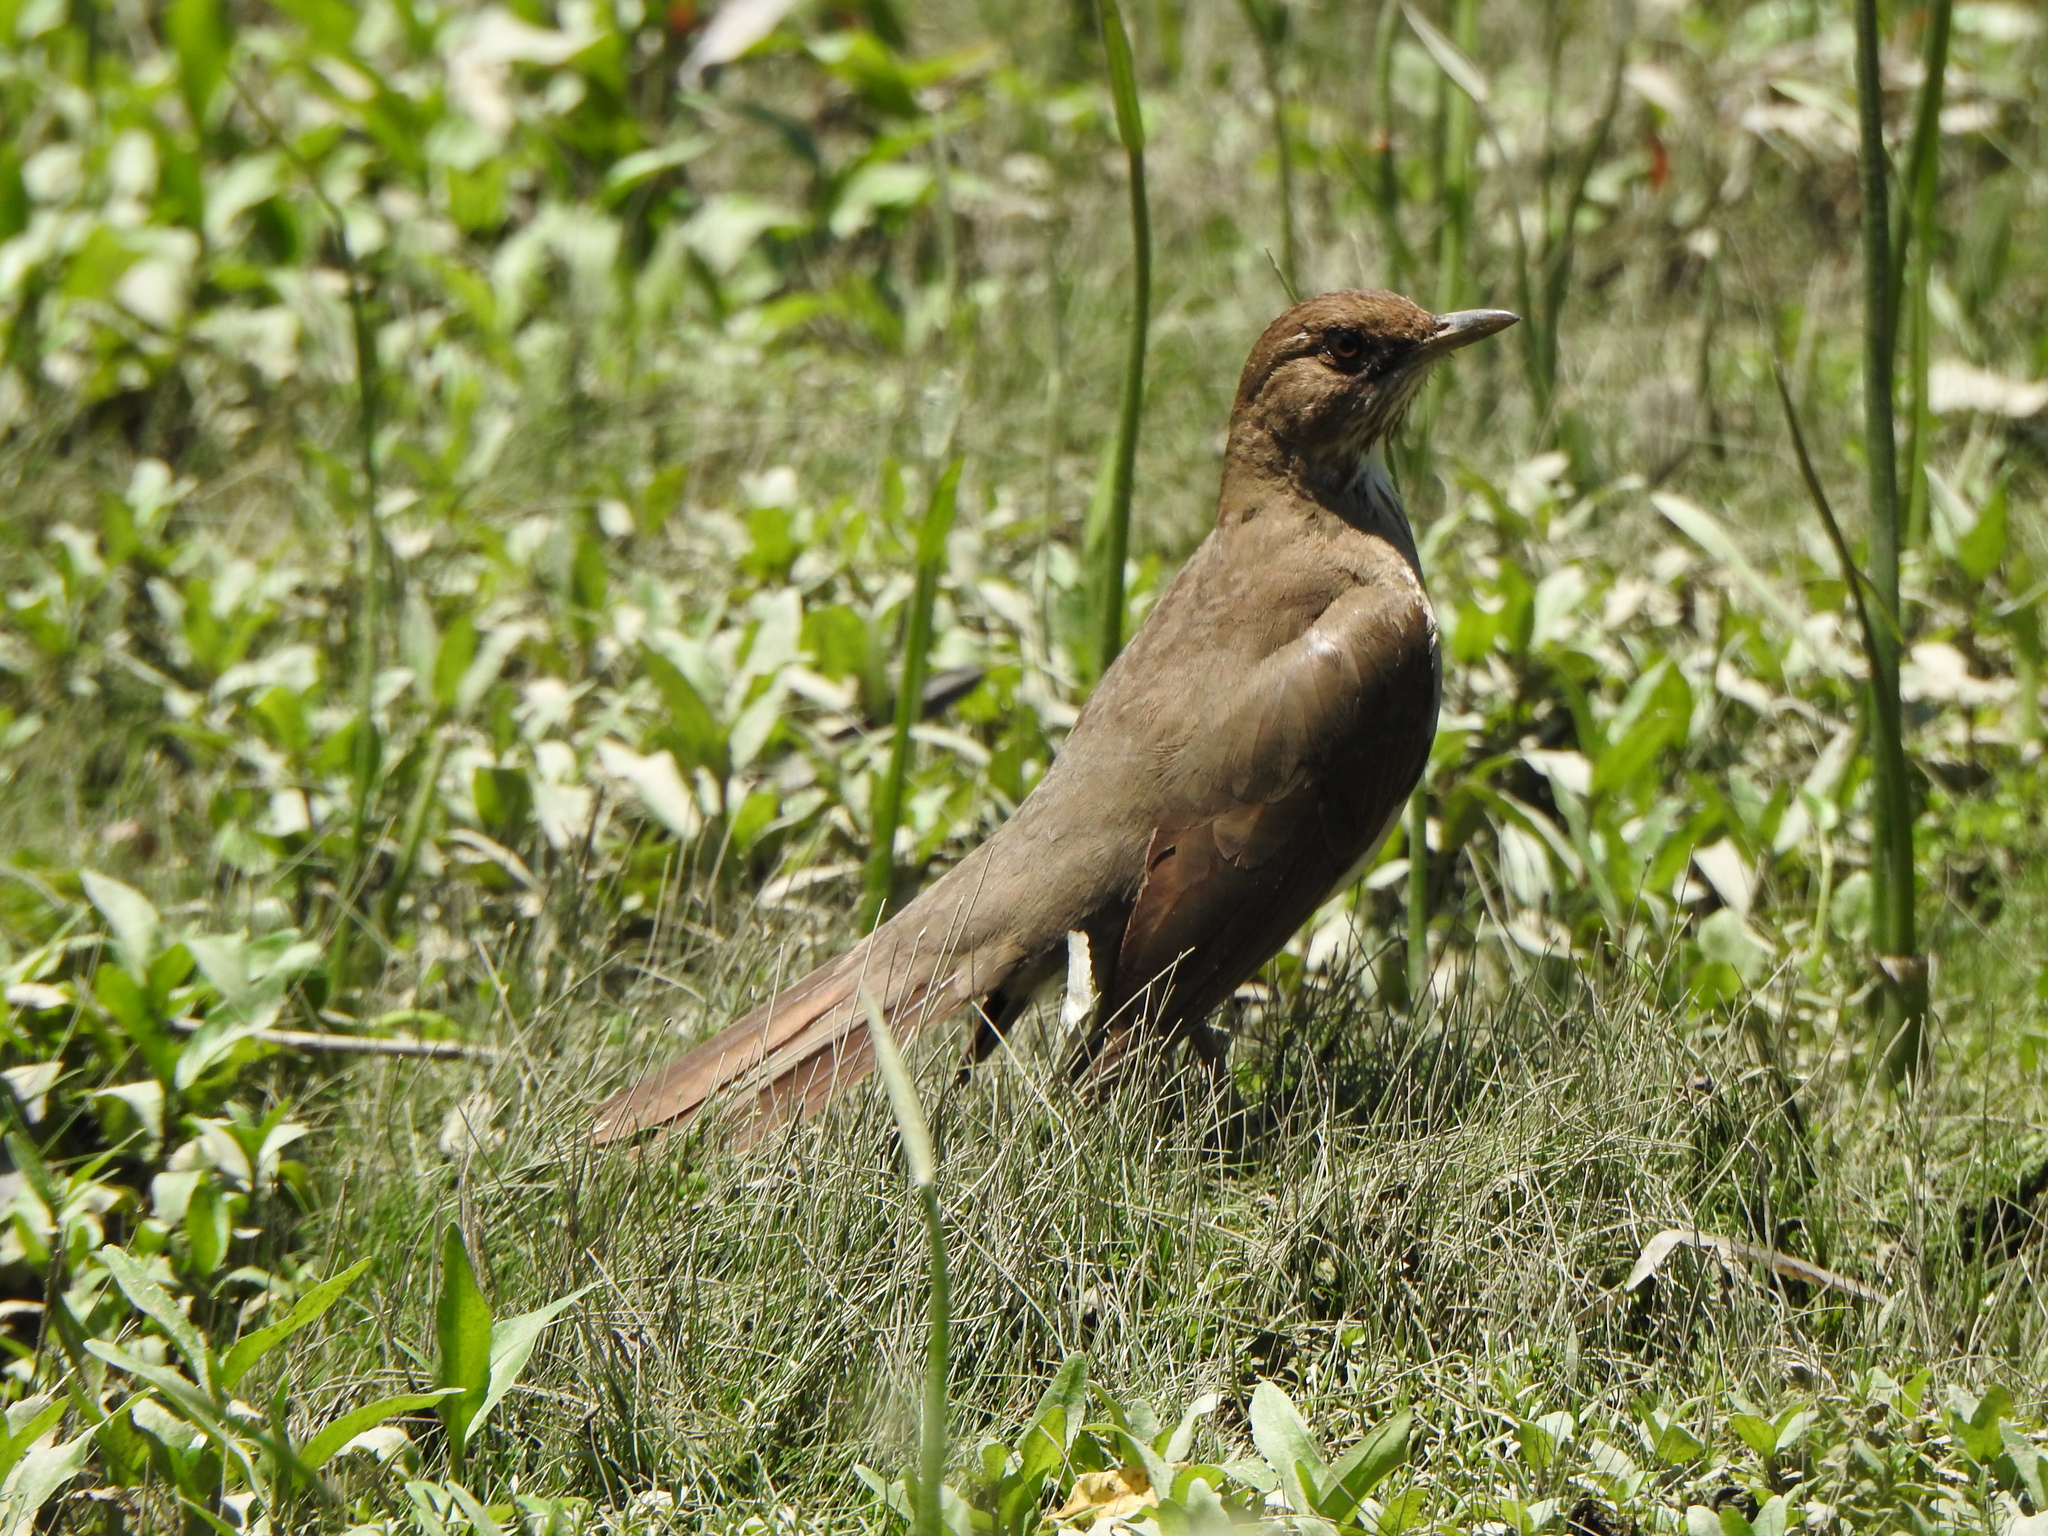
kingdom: Animalia
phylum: Chordata
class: Aves
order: Passeriformes
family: Turdidae
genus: Turdus
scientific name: Turdus amaurochalinus
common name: Creamy-bellied thrush
